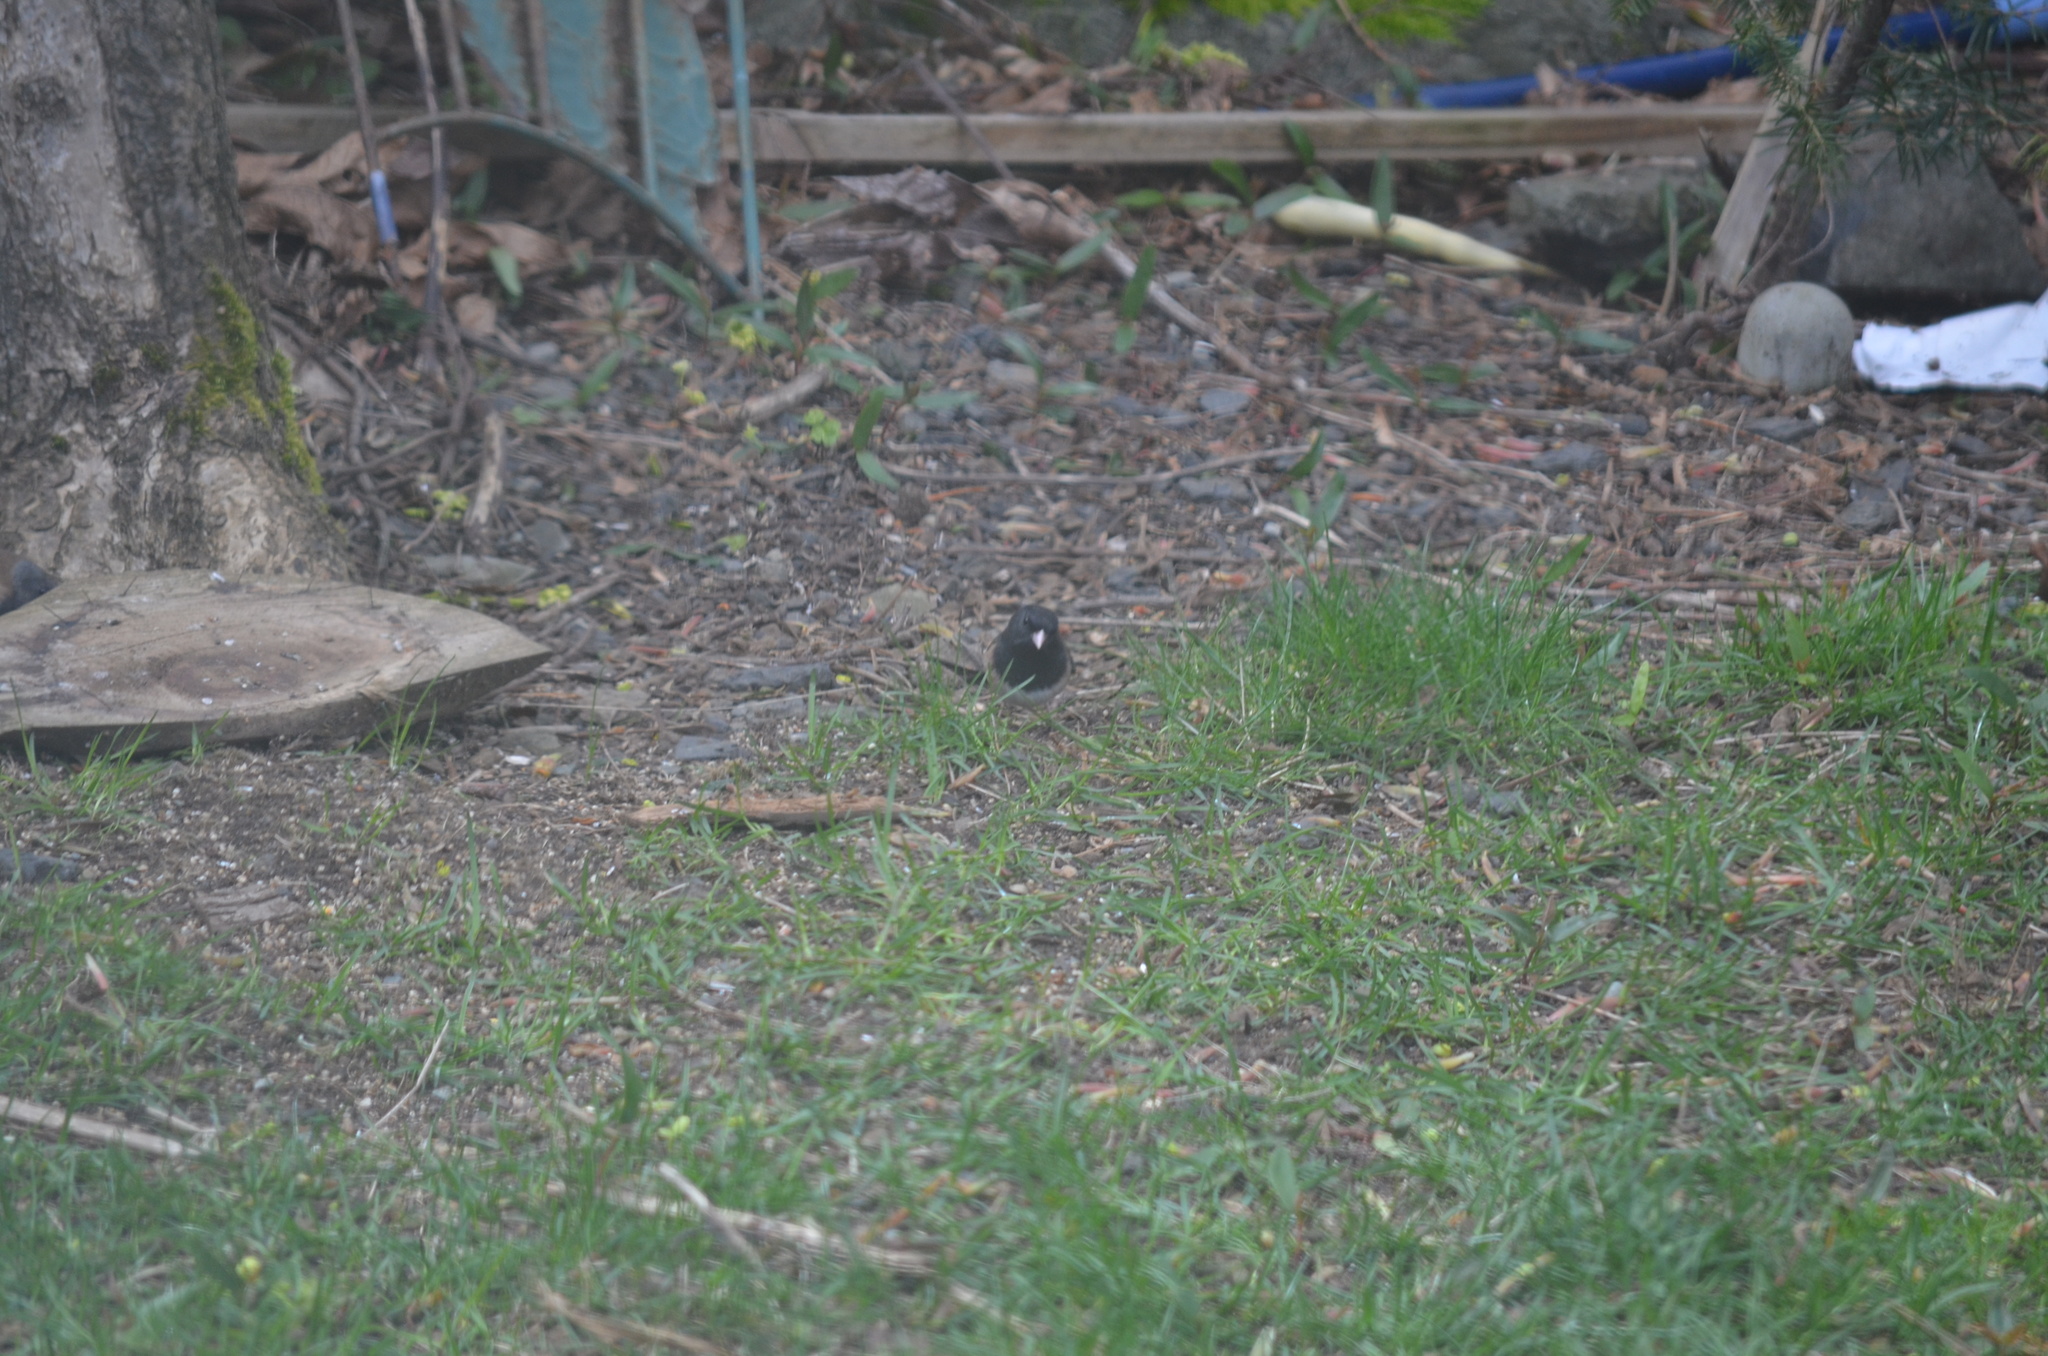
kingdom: Animalia
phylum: Chordata
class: Aves
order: Passeriformes
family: Passerellidae
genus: Junco
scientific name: Junco hyemalis
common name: Dark-eyed junco
